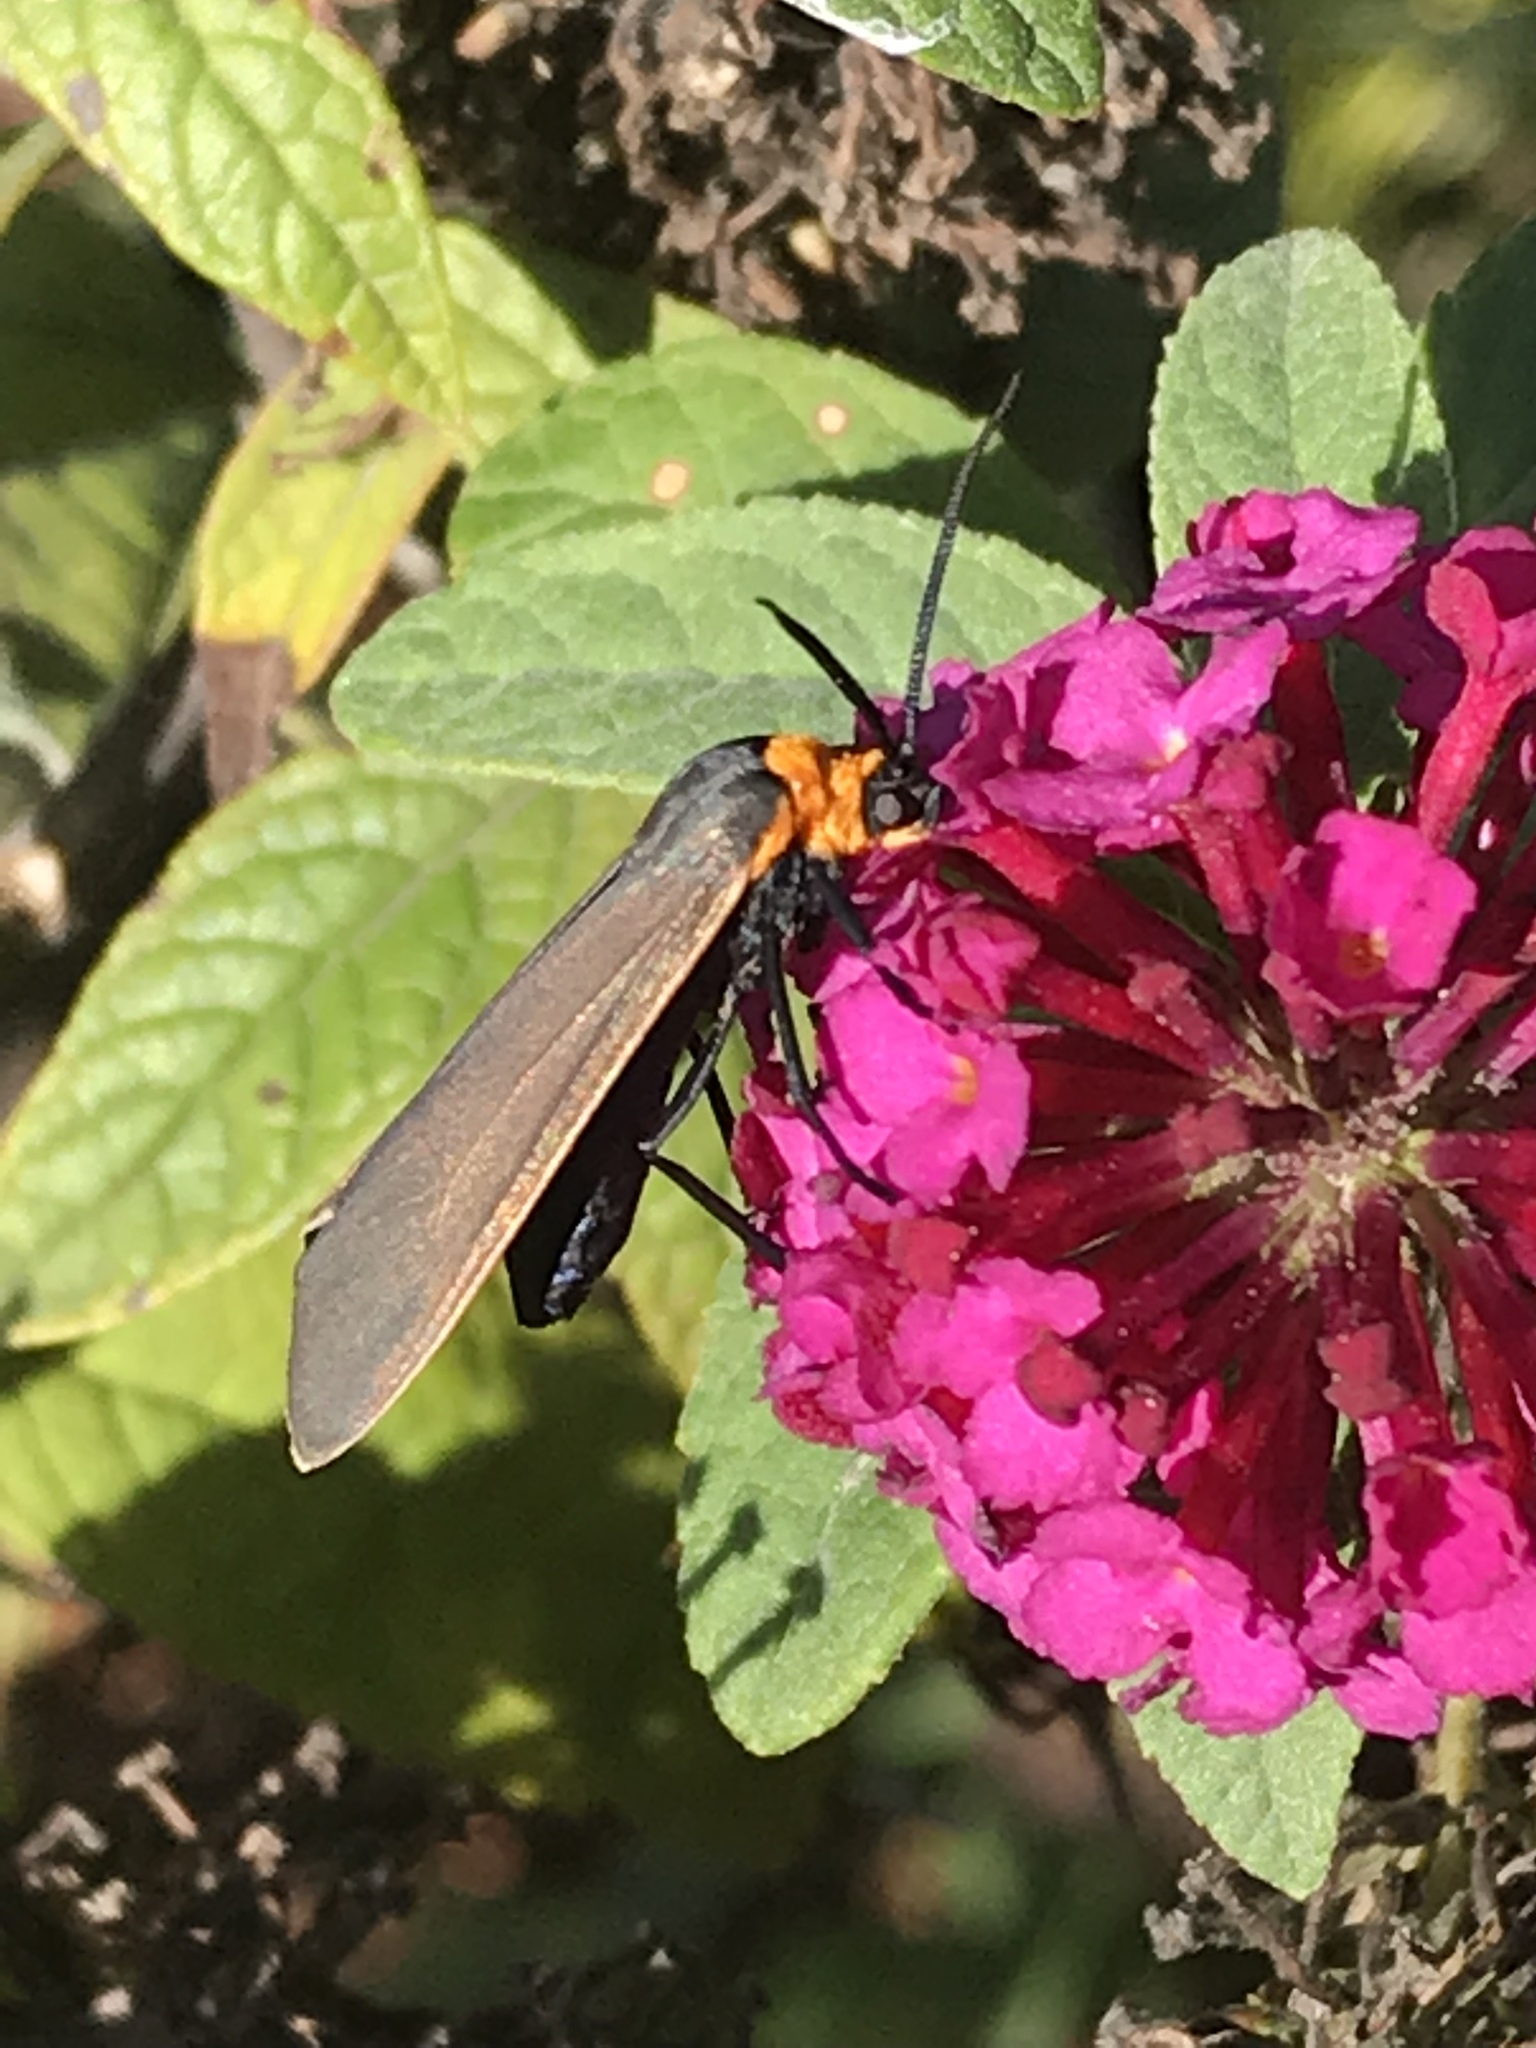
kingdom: Animalia
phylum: Arthropoda
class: Insecta
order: Lepidoptera
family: Erebidae
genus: Cisseps
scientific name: Cisseps fulvicollis
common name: Yellow-collared scape moth
